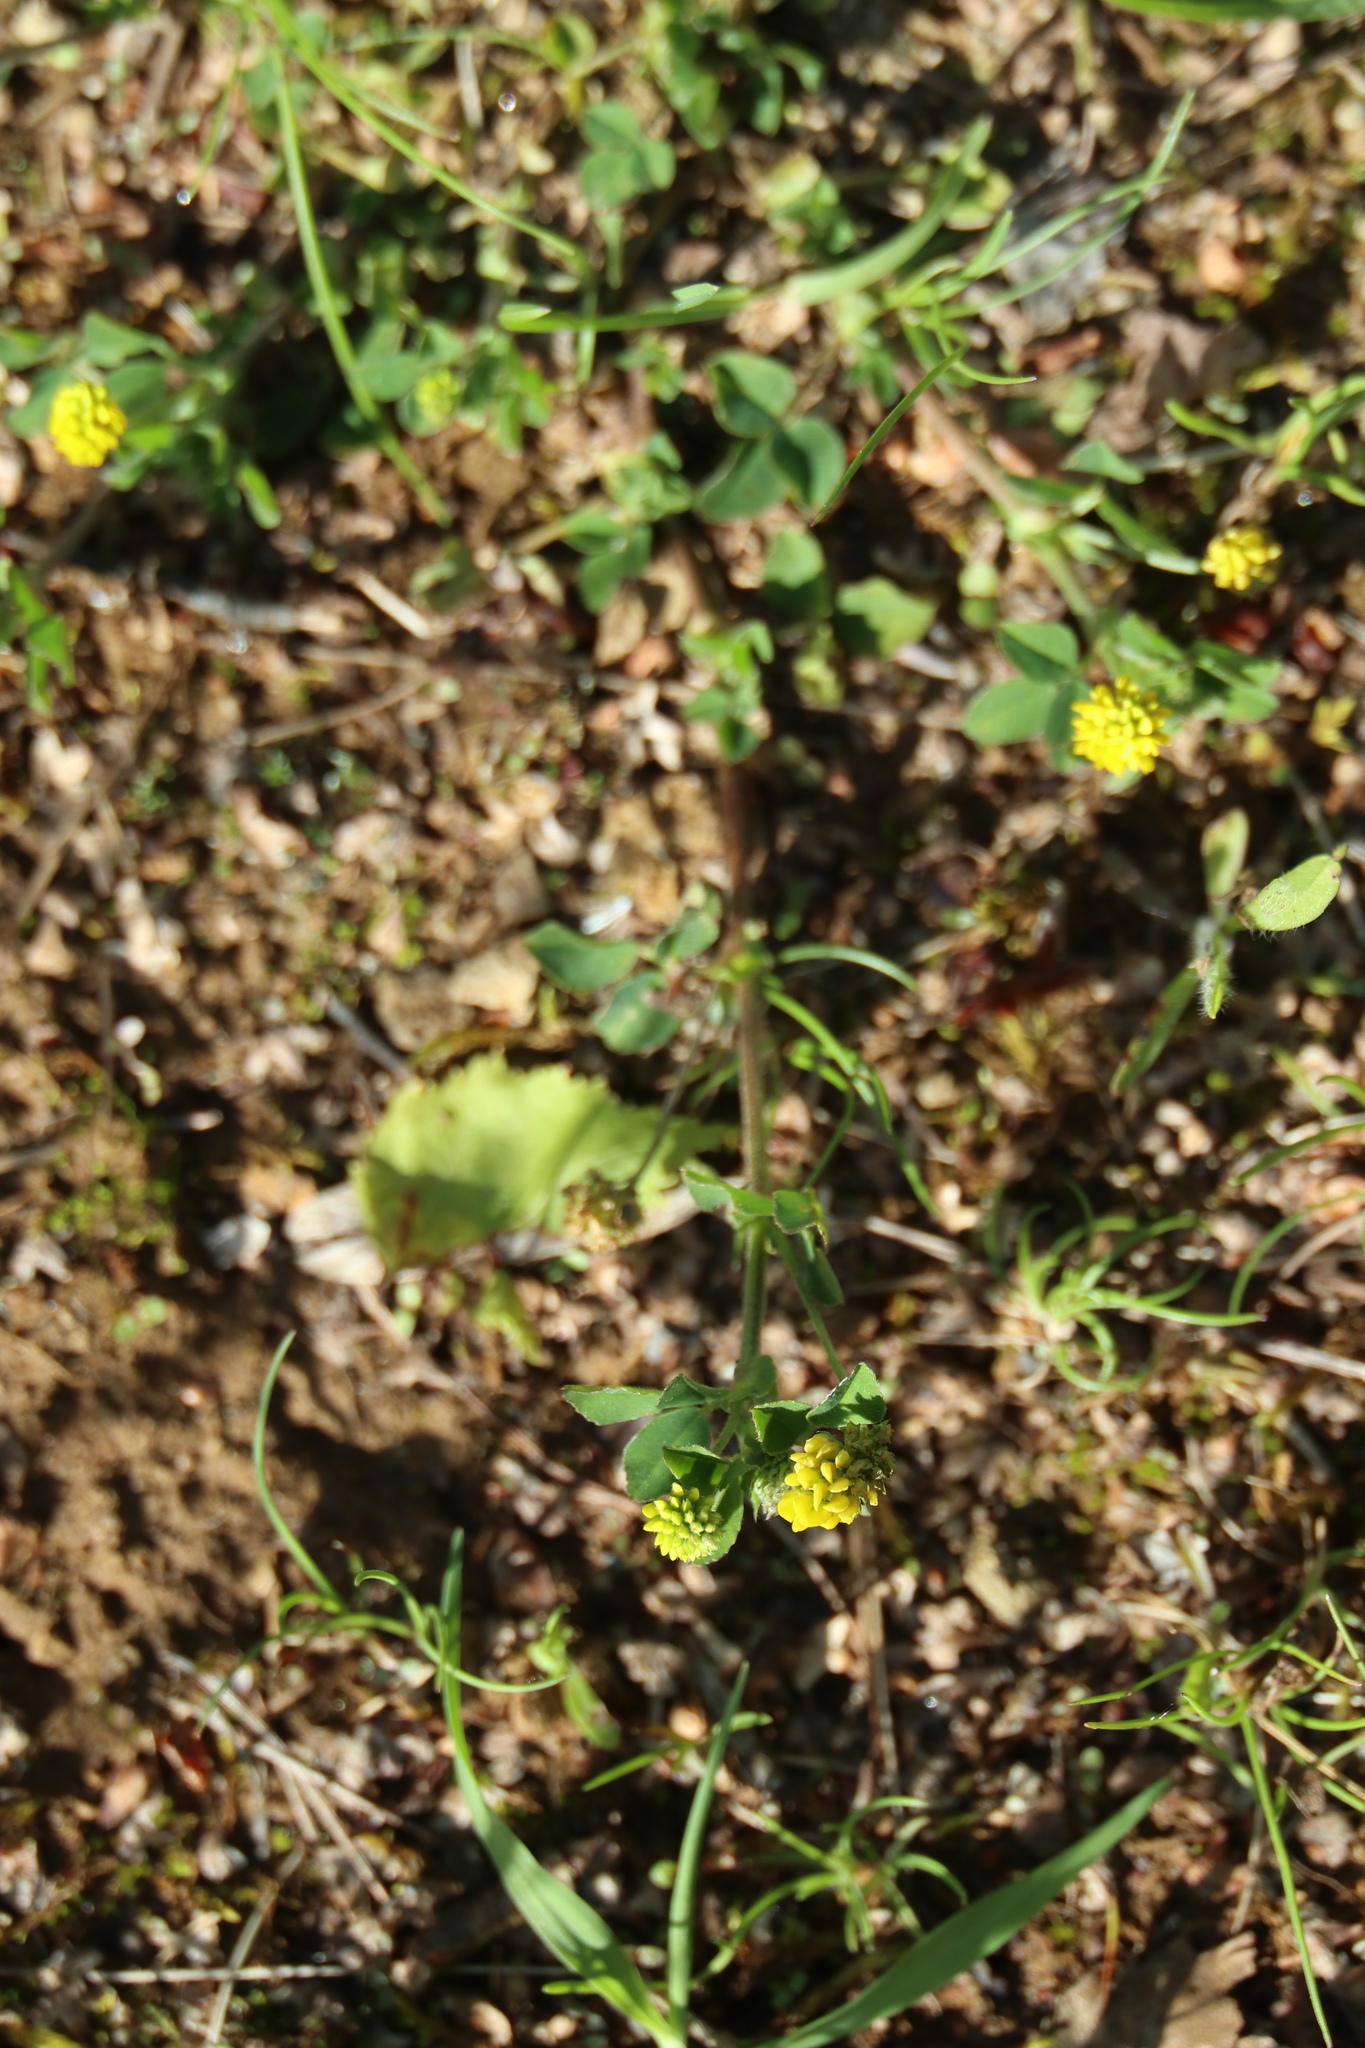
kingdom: Plantae
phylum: Tracheophyta
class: Magnoliopsida
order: Fabales
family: Fabaceae
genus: Medicago
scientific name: Medicago lupulina
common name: Black medick
